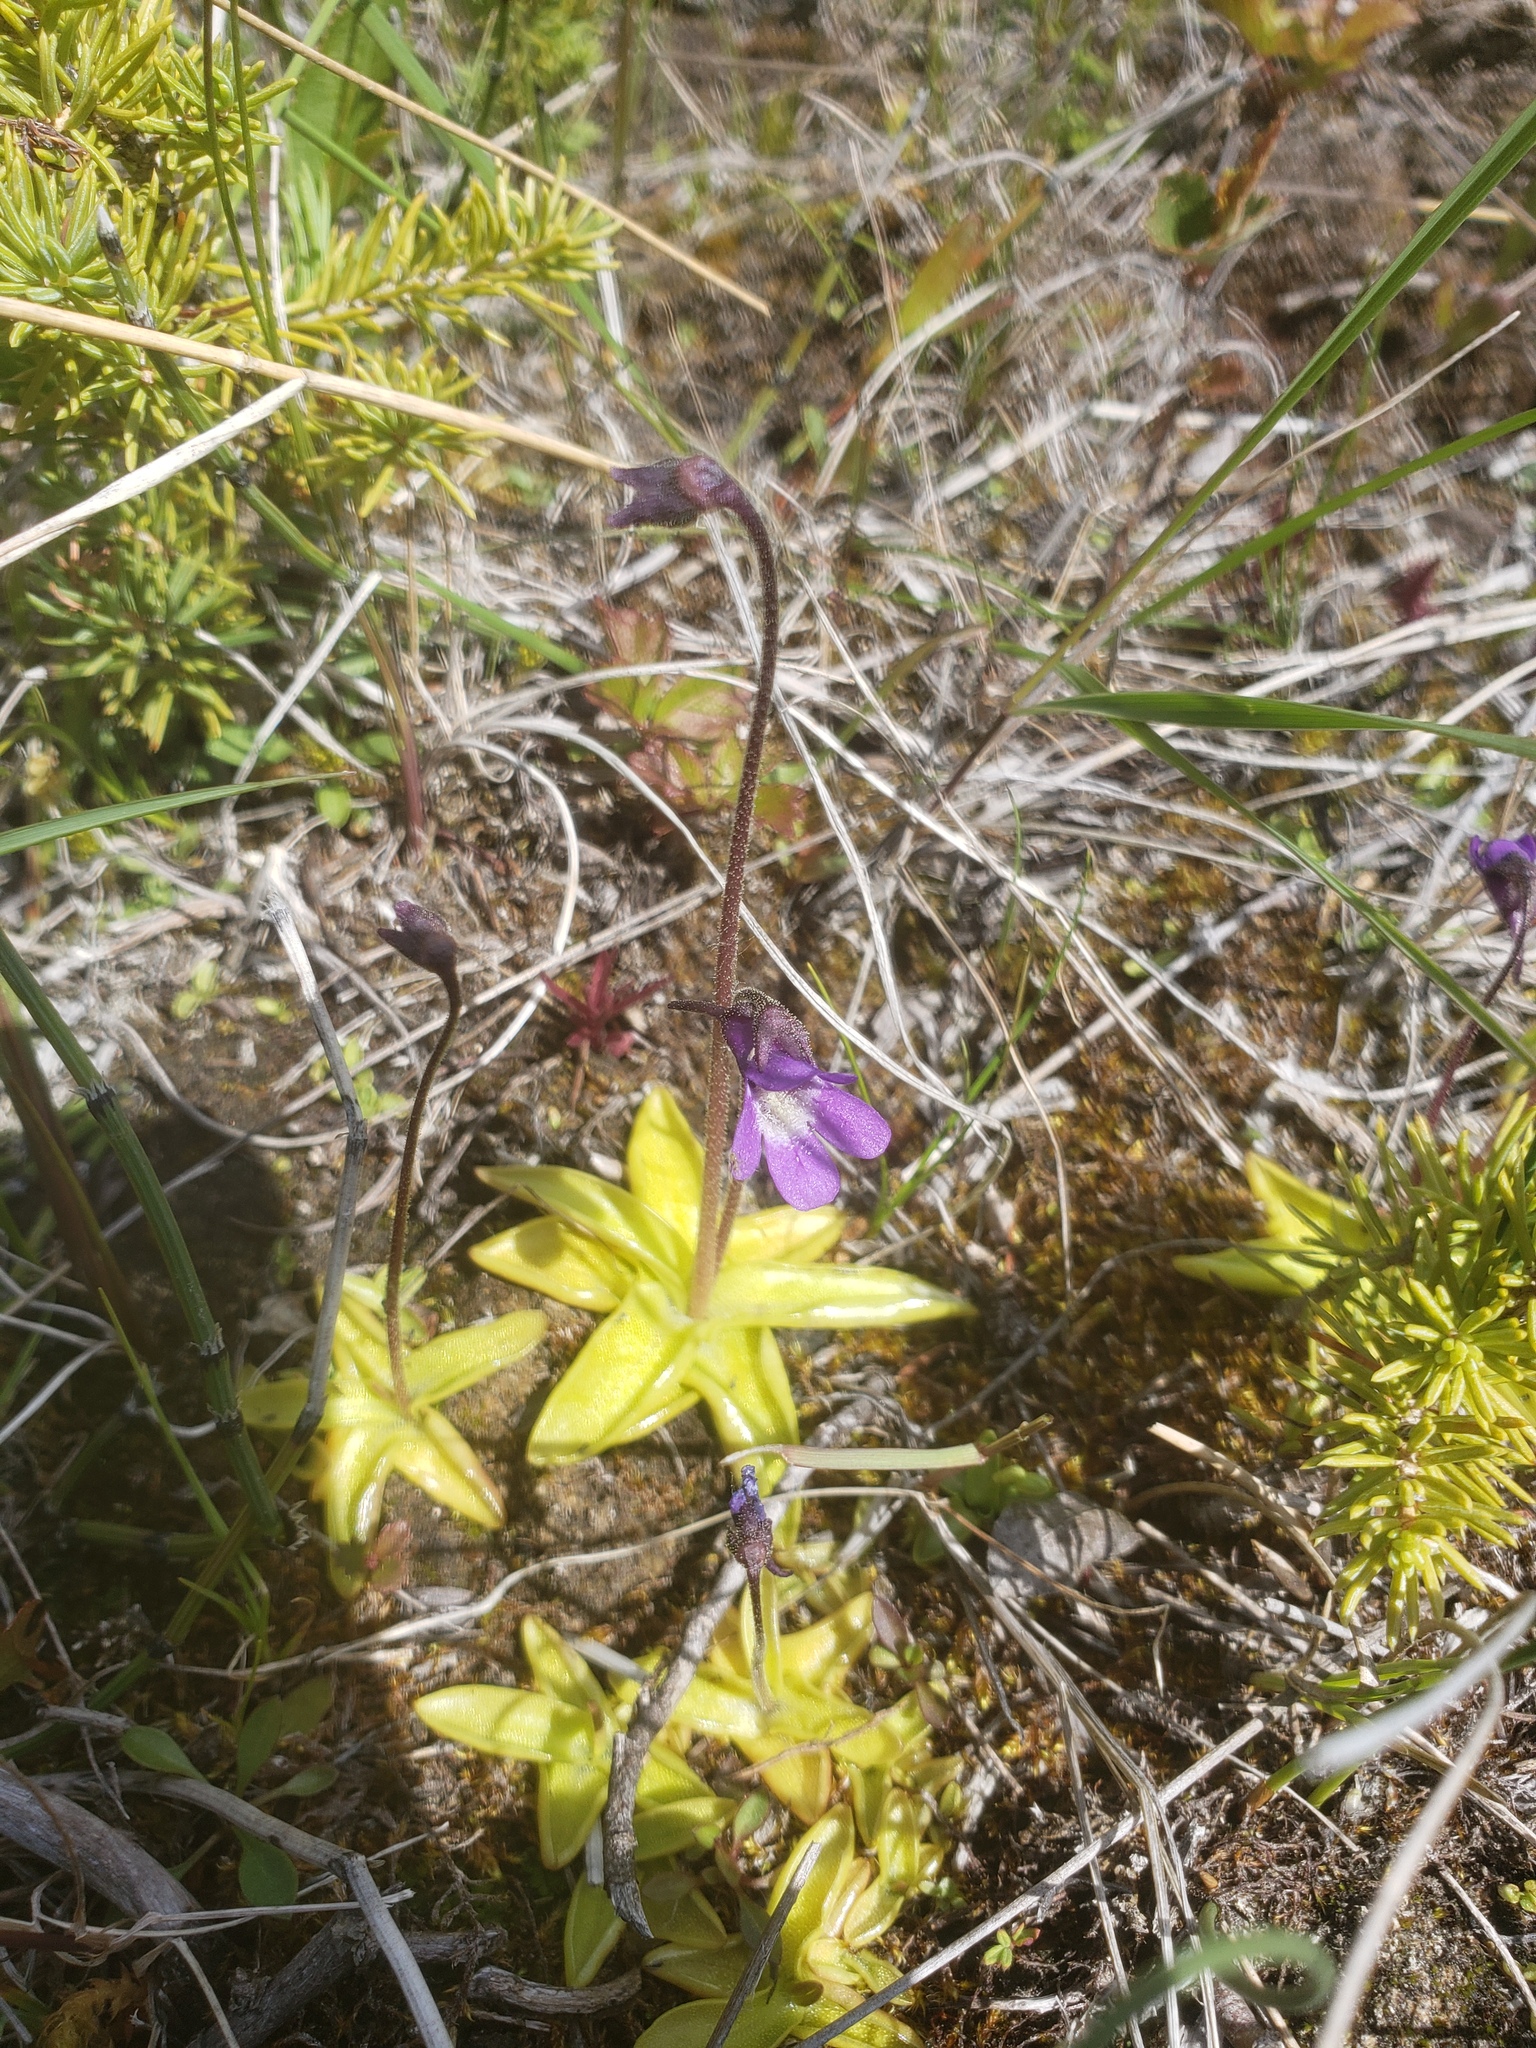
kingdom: Plantae
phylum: Tracheophyta
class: Magnoliopsida
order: Lamiales
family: Lentibulariaceae
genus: Pinguicula
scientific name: Pinguicula vulgaris
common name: Common butterwort
